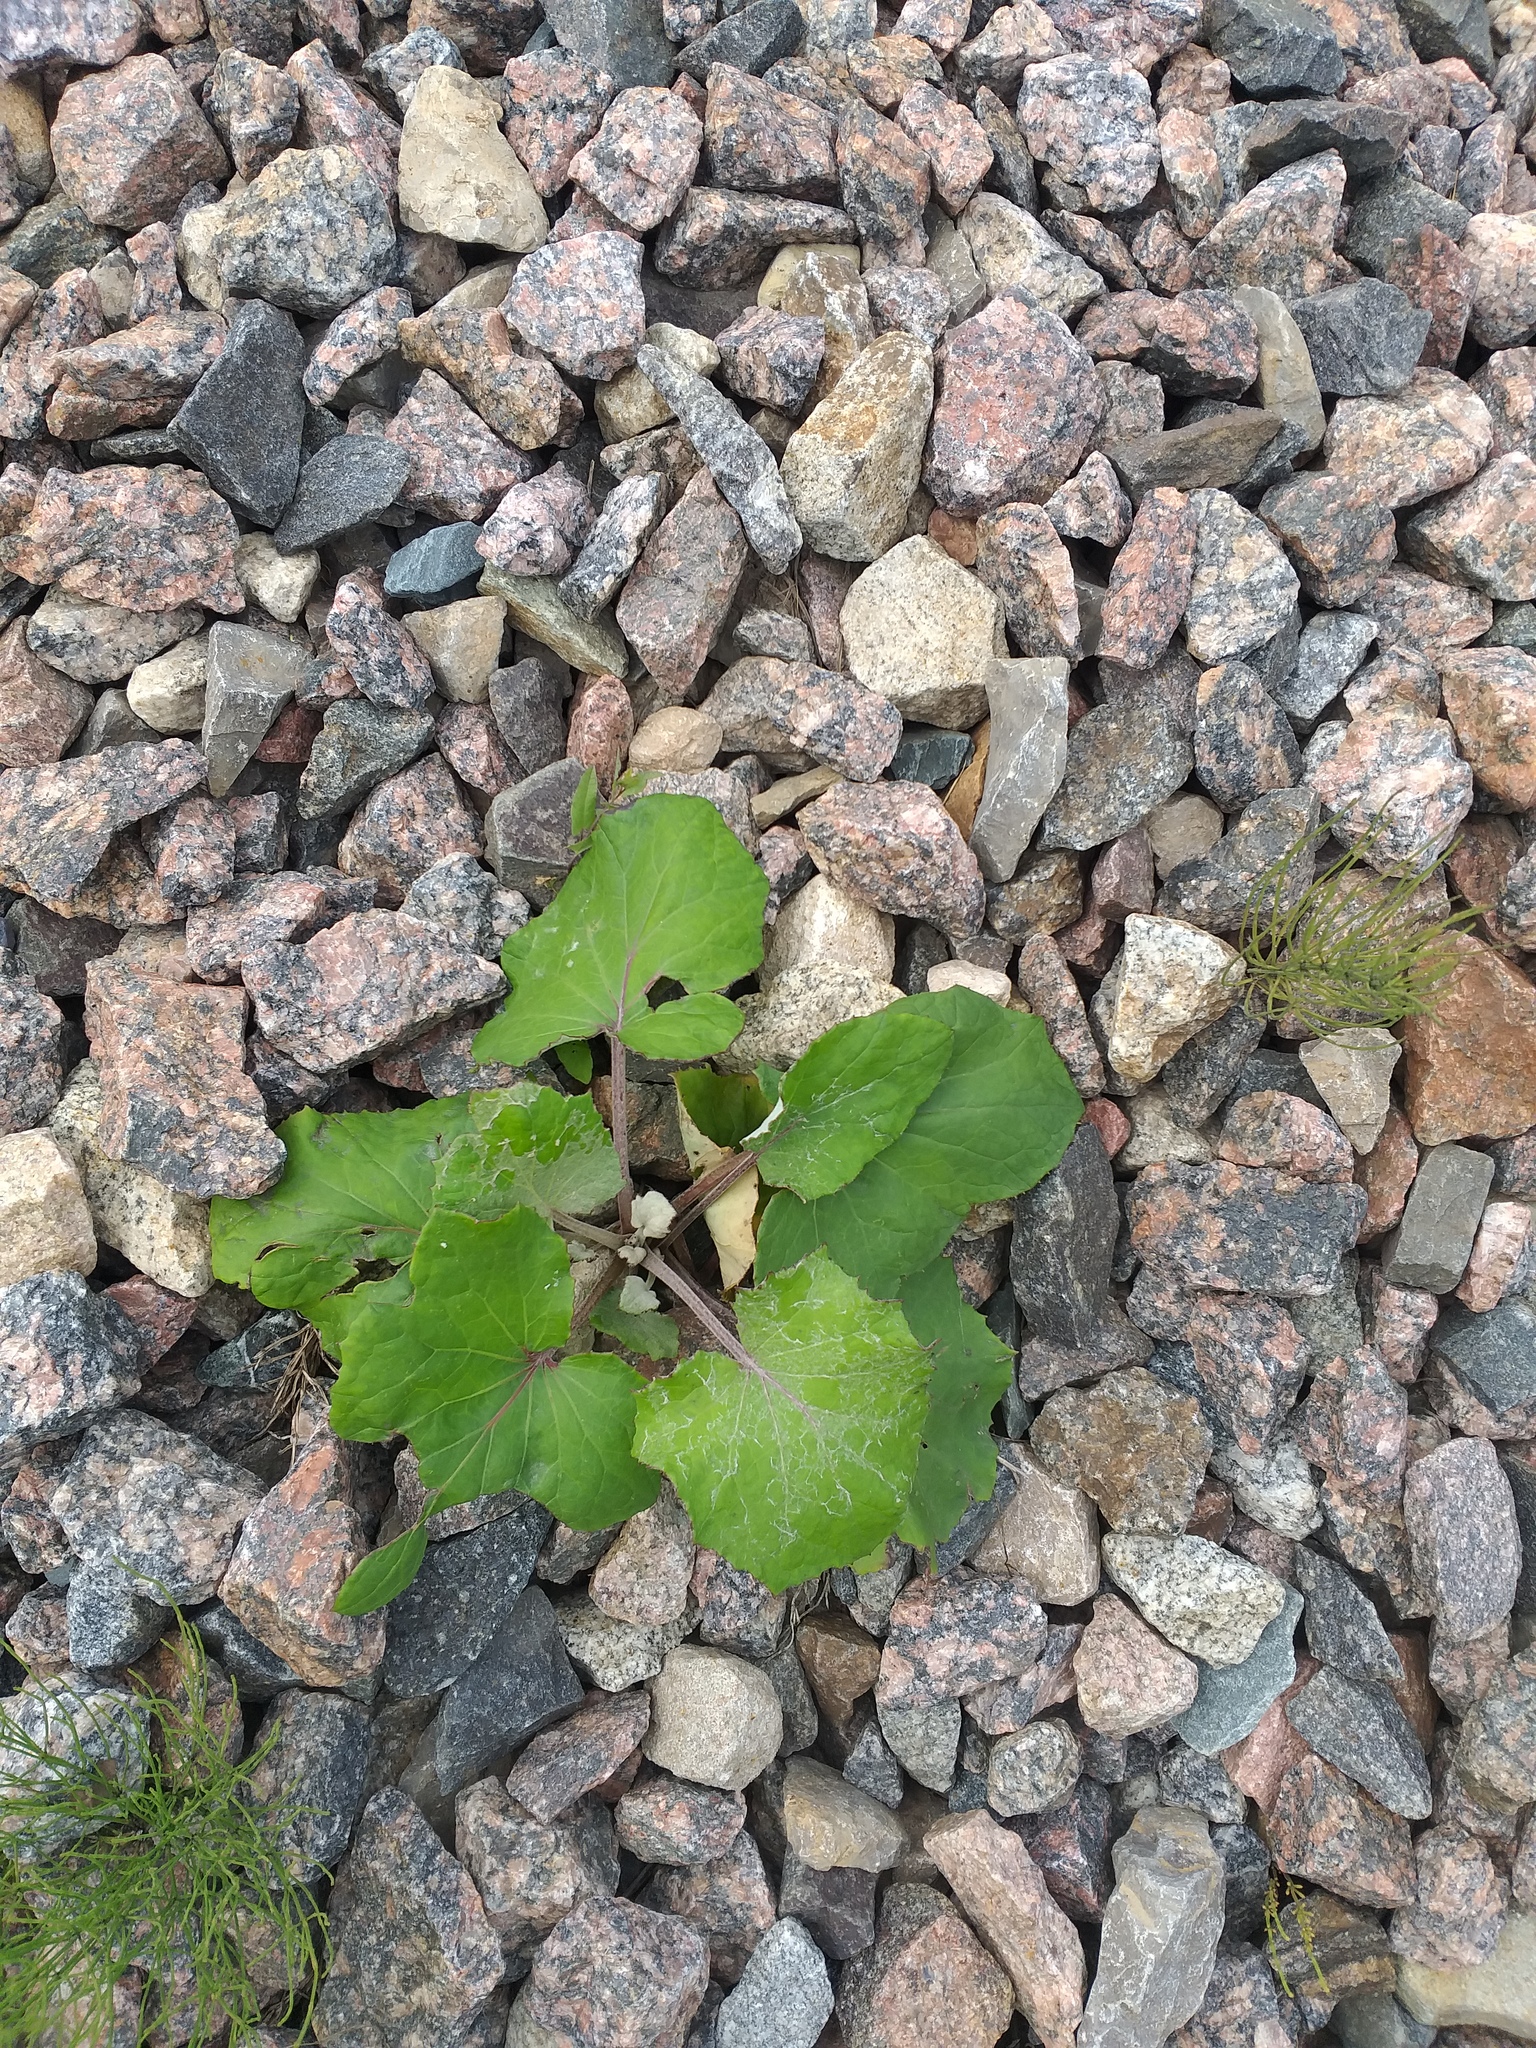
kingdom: Plantae
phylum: Tracheophyta
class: Magnoliopsida
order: Asterales
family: Asteraceae
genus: Tussilago
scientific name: Tussilago farfara
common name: Coltsfoot
